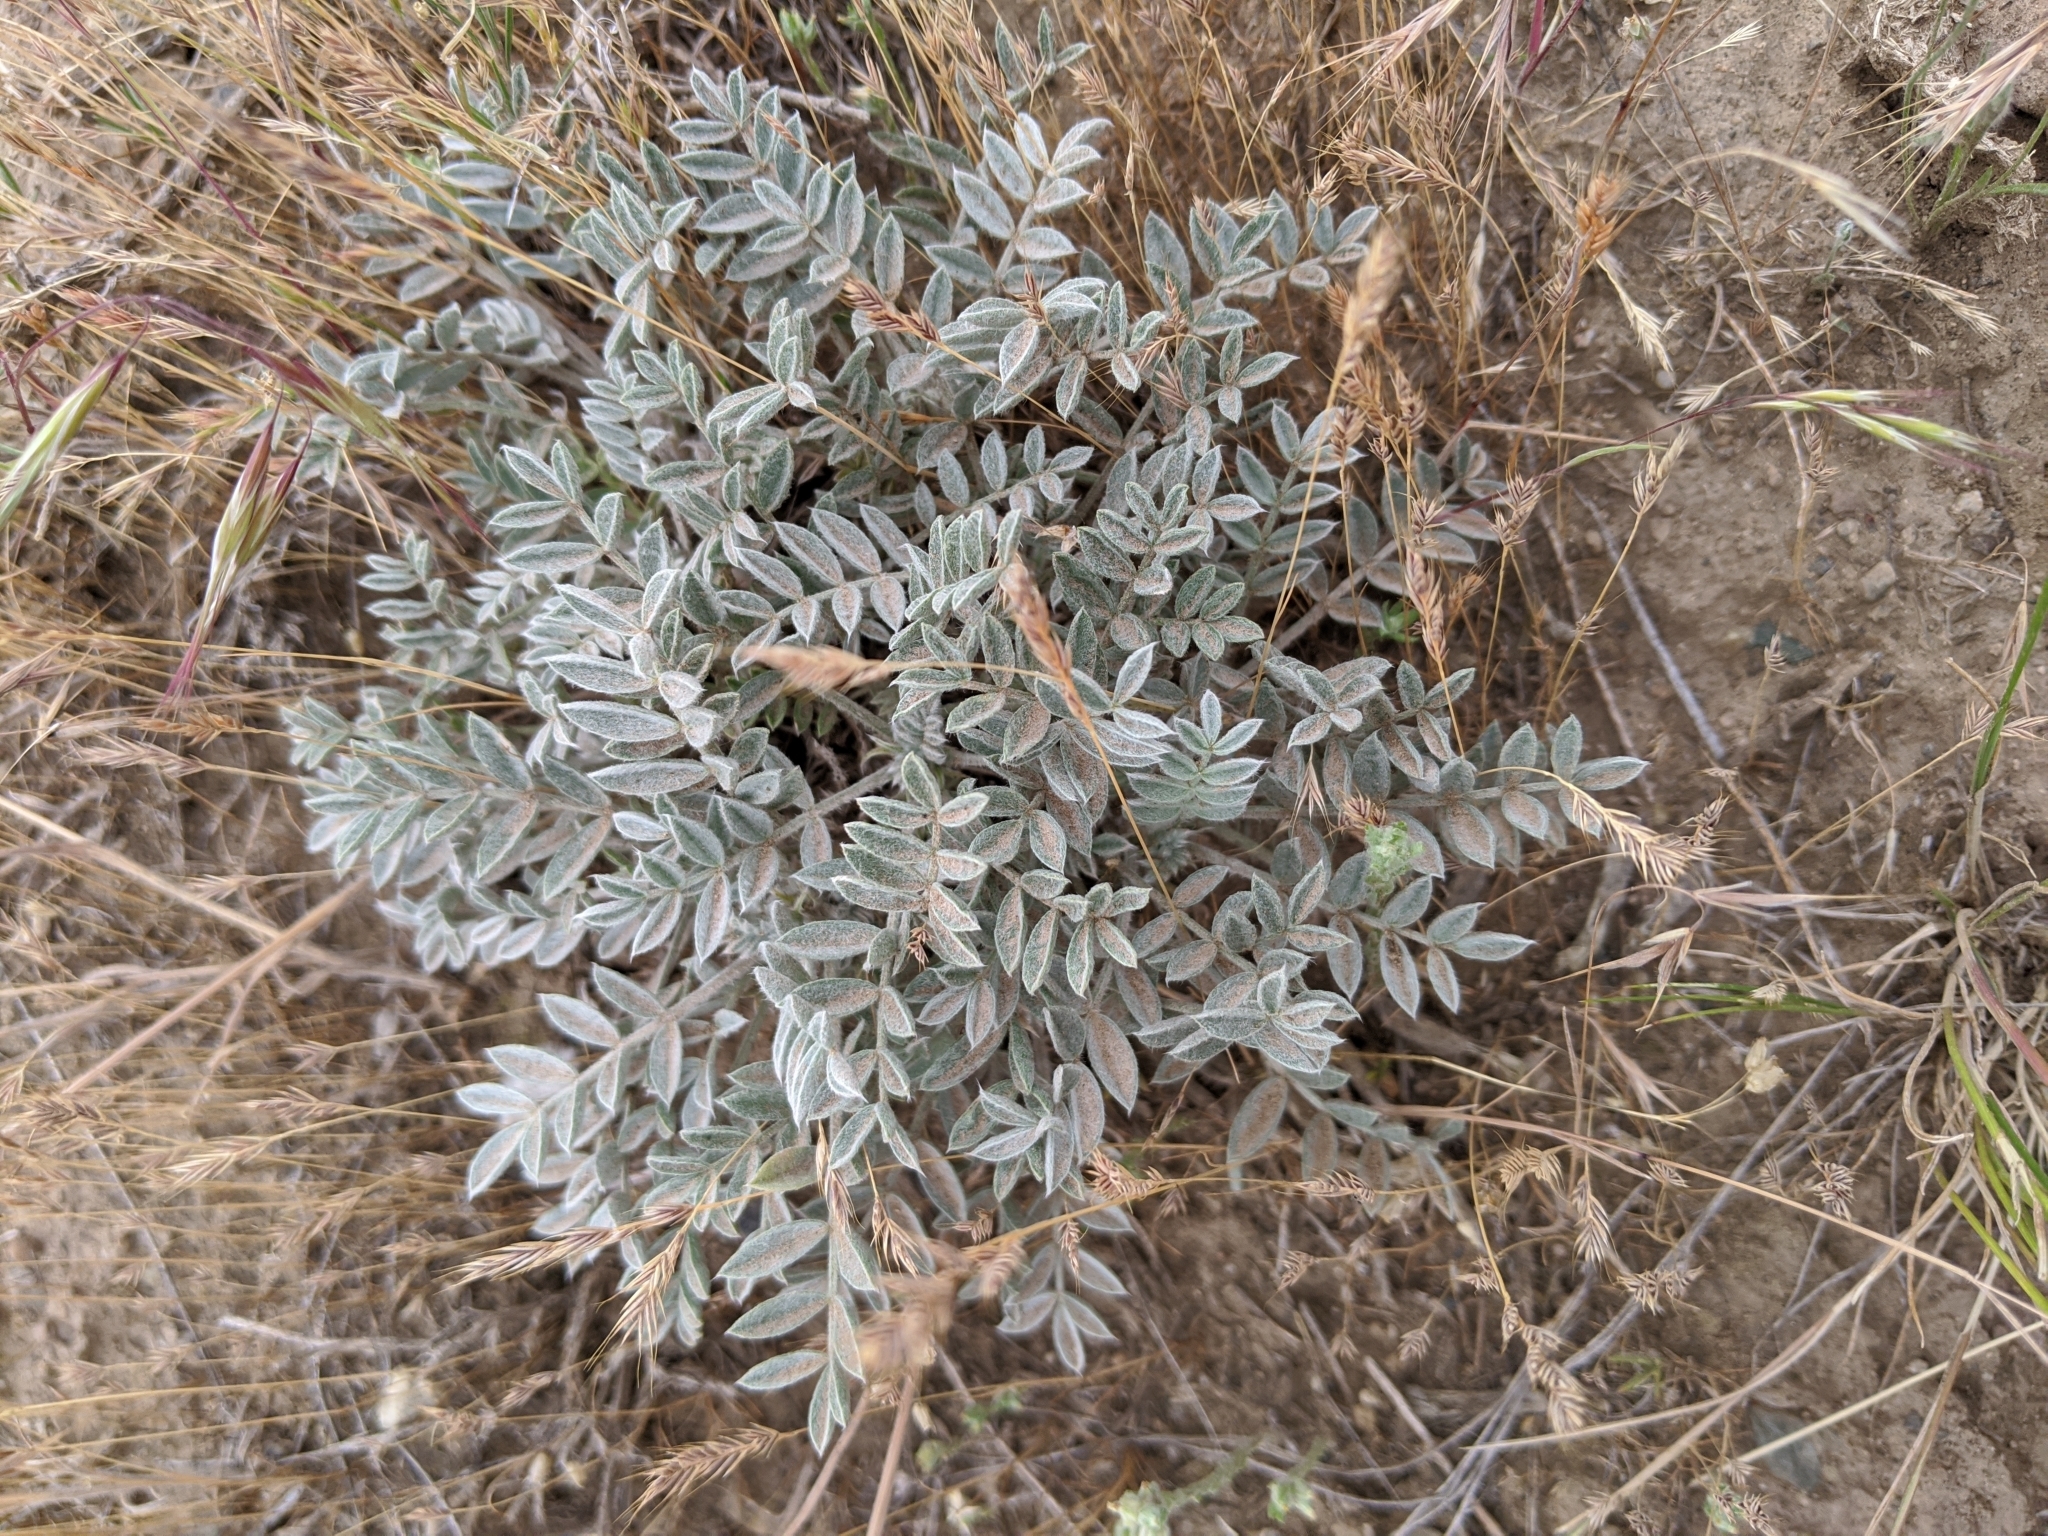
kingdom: Plantae
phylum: Tracheophyta
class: Magnoliopsida
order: Fabales
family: Fabaceae
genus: Astragalus
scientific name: Astragalus purshii
